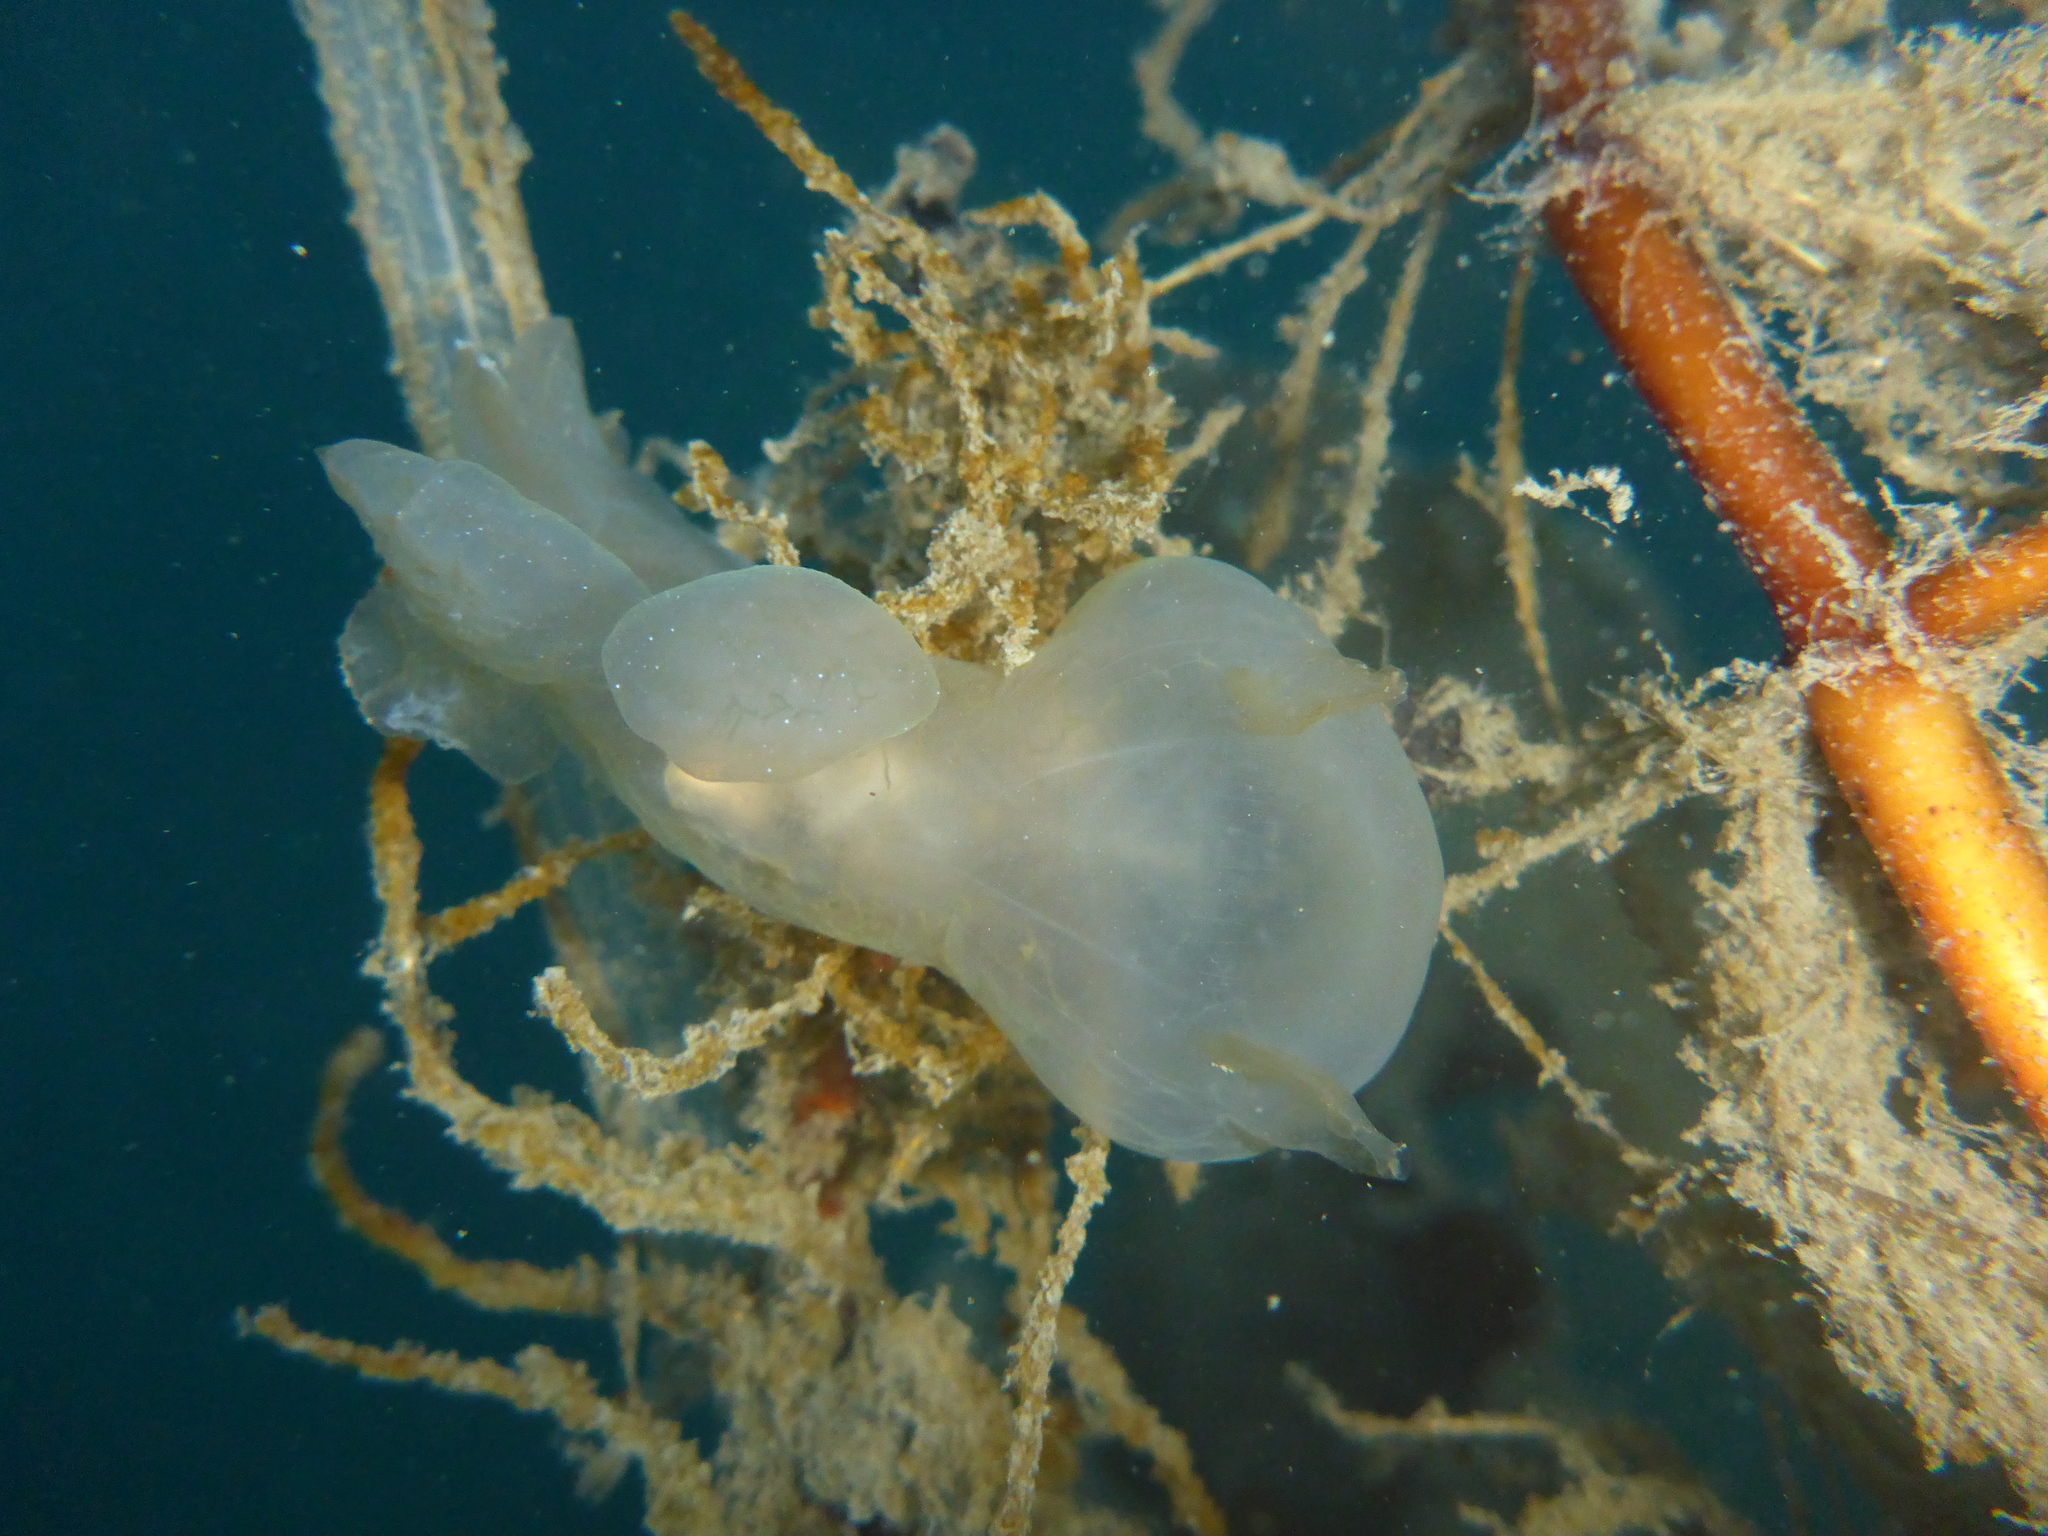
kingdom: Animalia
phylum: Mollusca
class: Gastropoda
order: Nudibranchia
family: Tethydidae
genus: Melibe
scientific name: Melibe leonina
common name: Lion nudibranch
